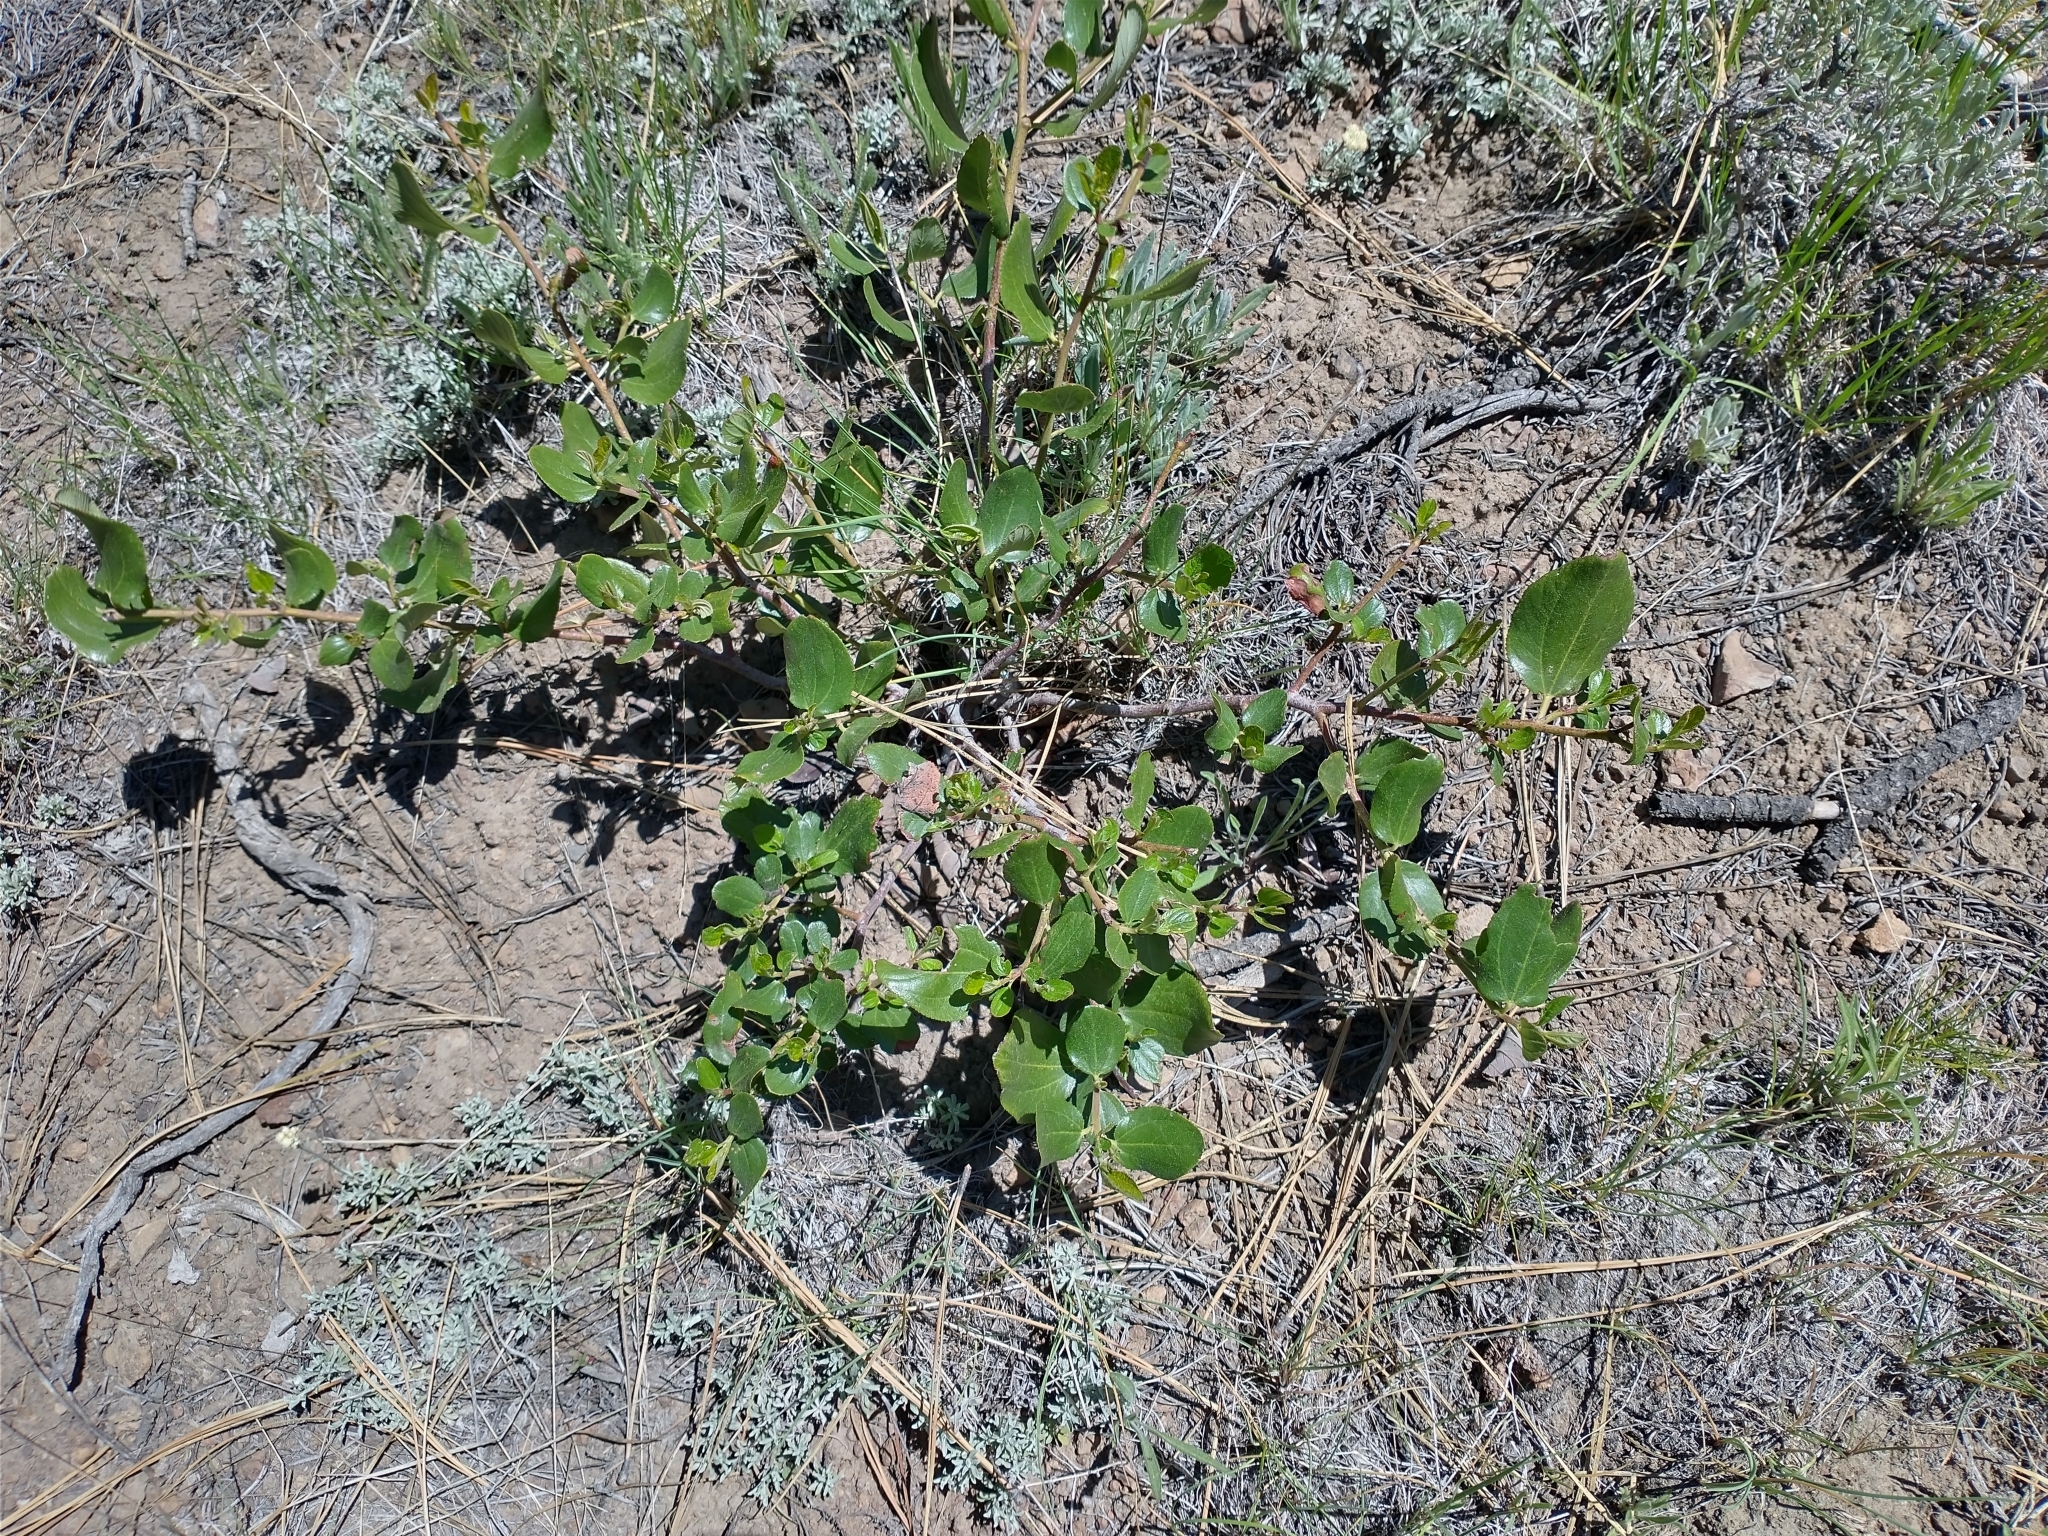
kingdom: Plantae
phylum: Tracheophyta
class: Magnoliopsida
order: Rosales
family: Rhamnaceae
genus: Ceanothus
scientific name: Ceanothus velutinus
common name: Snowbrush
